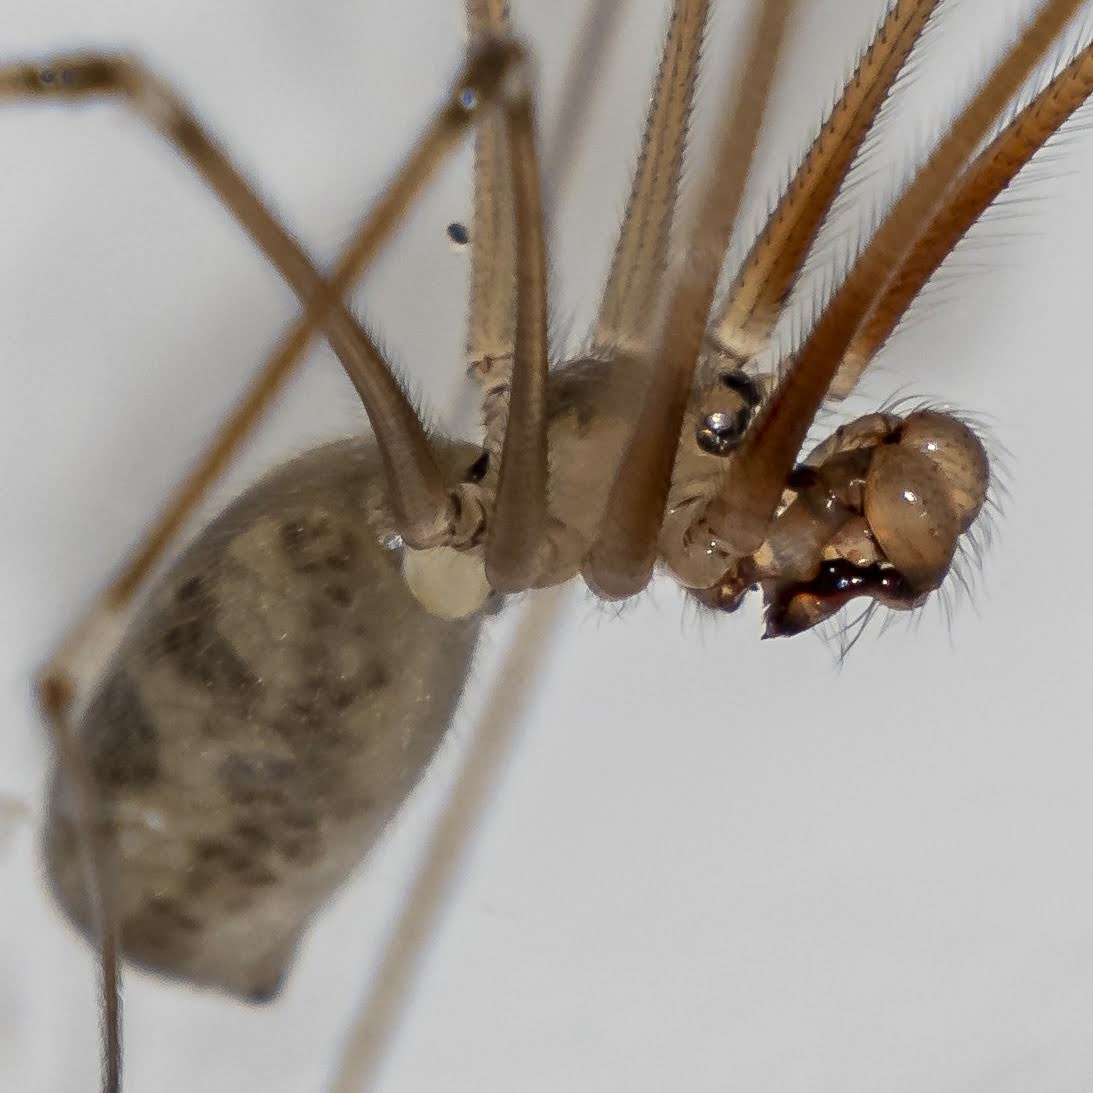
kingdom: Animalia
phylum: Arthropoda
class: Arachnida
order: Araneae
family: Pholcidae
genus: Pholcus
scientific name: Pholcus phalangioides
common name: Longbodied cellar spider
